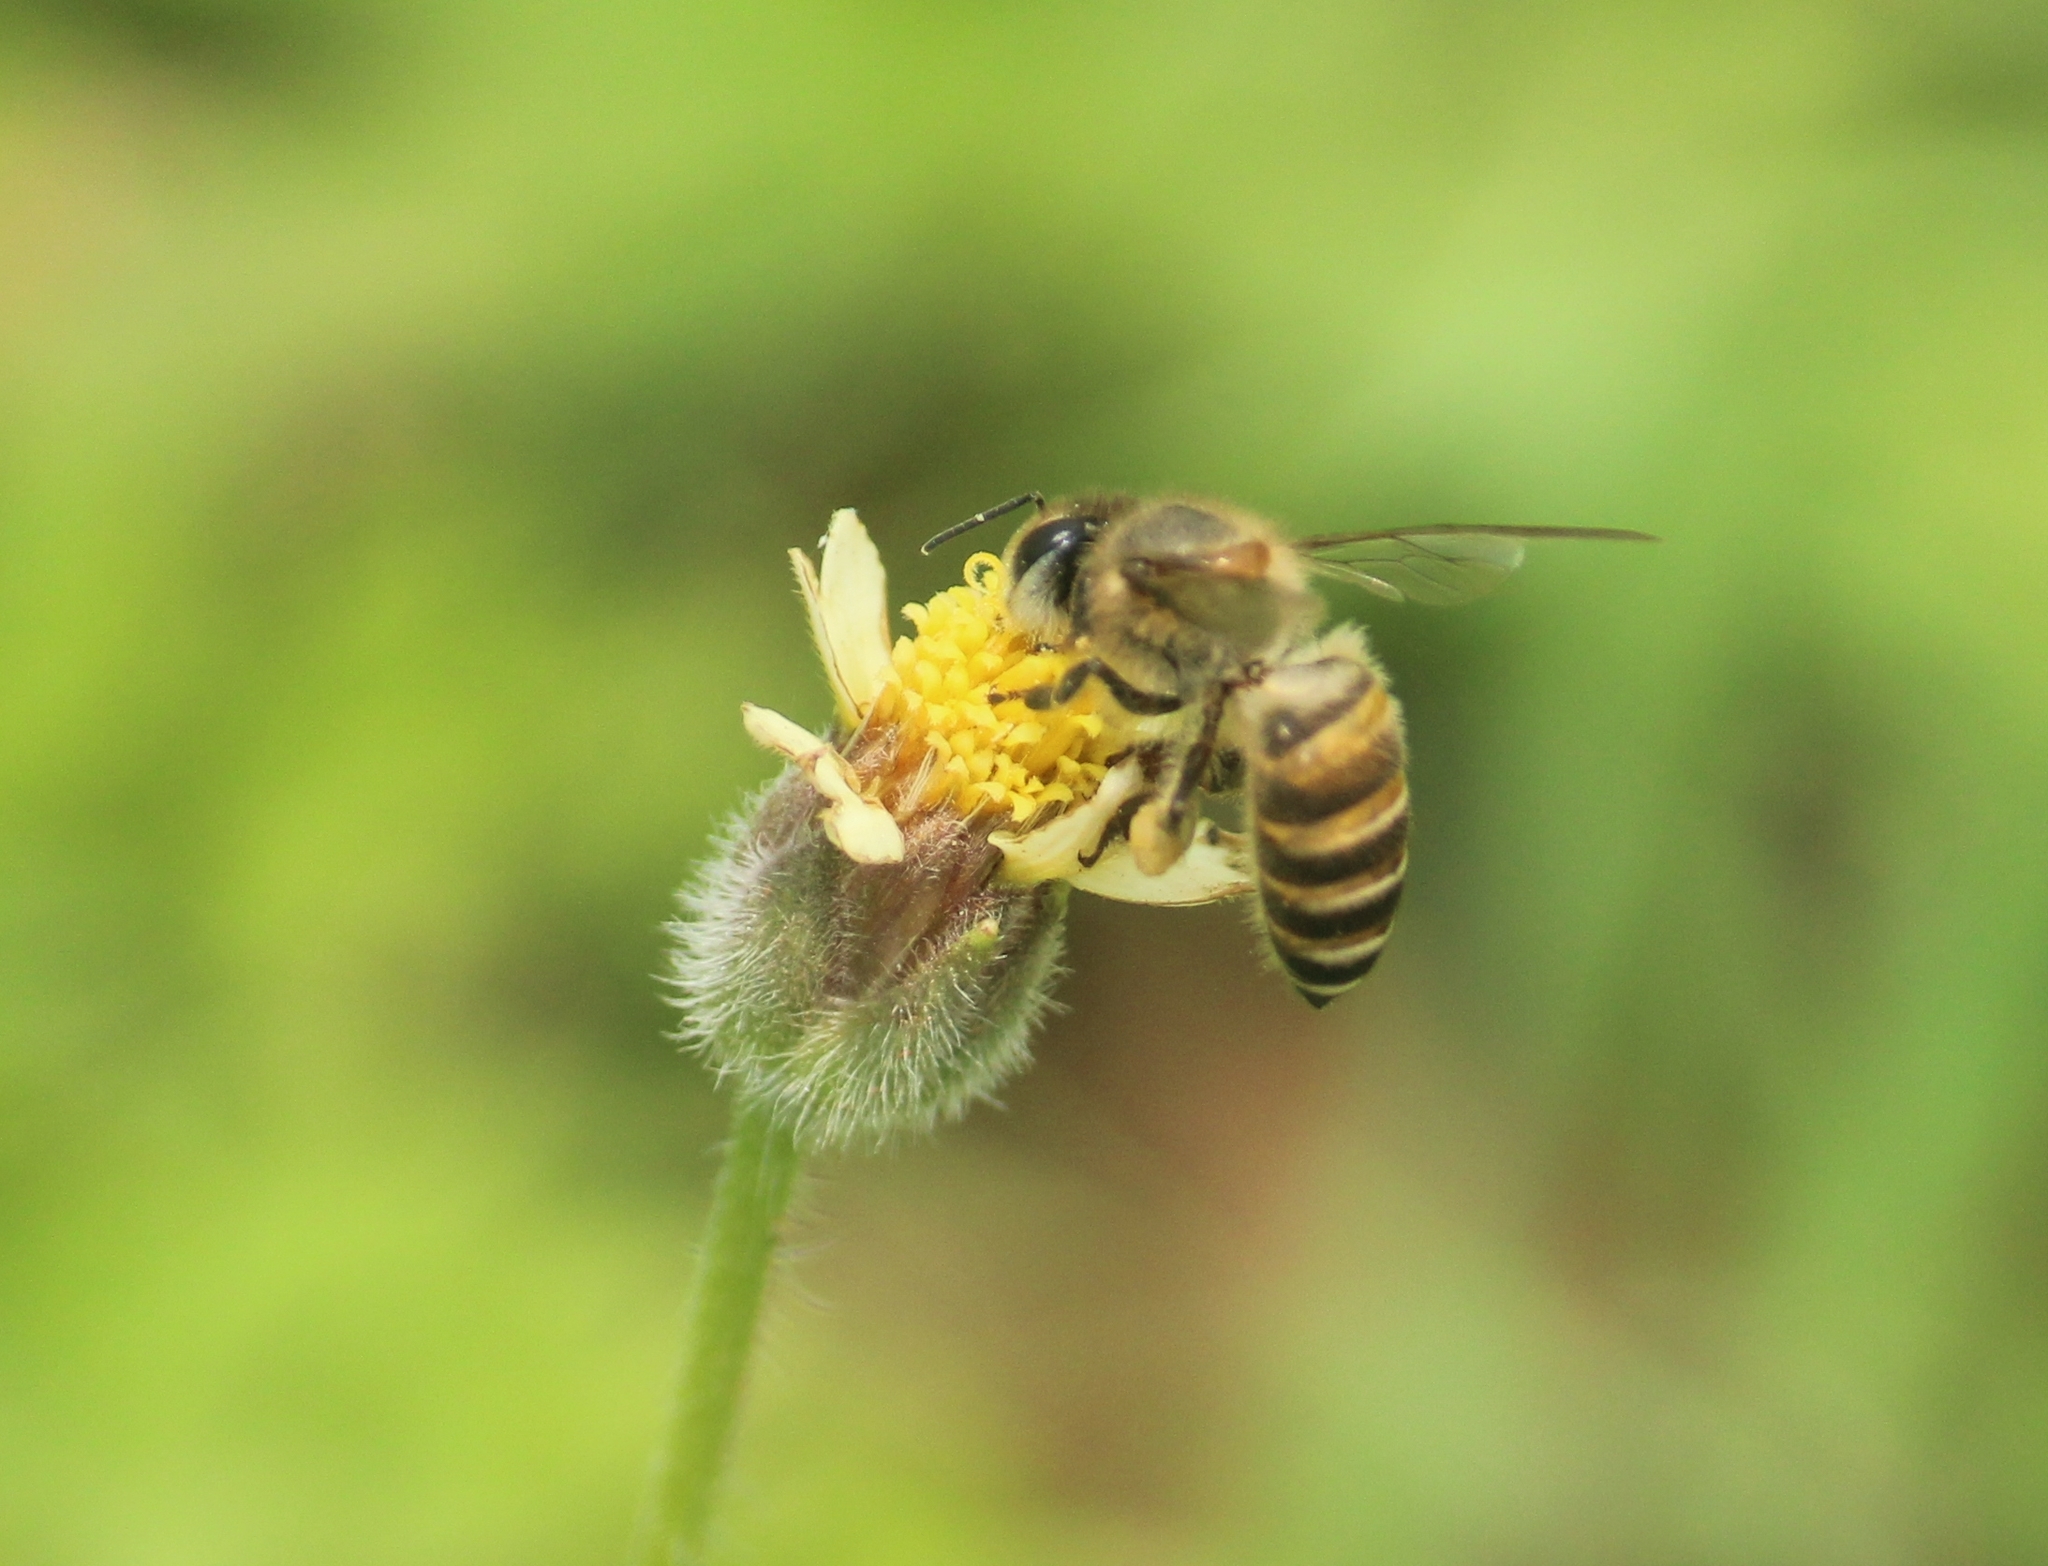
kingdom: Animalia
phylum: Arthropoda
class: Insecta
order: Hymenoptera
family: Apidae
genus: Apis
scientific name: Apis cerana
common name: Honey bee
